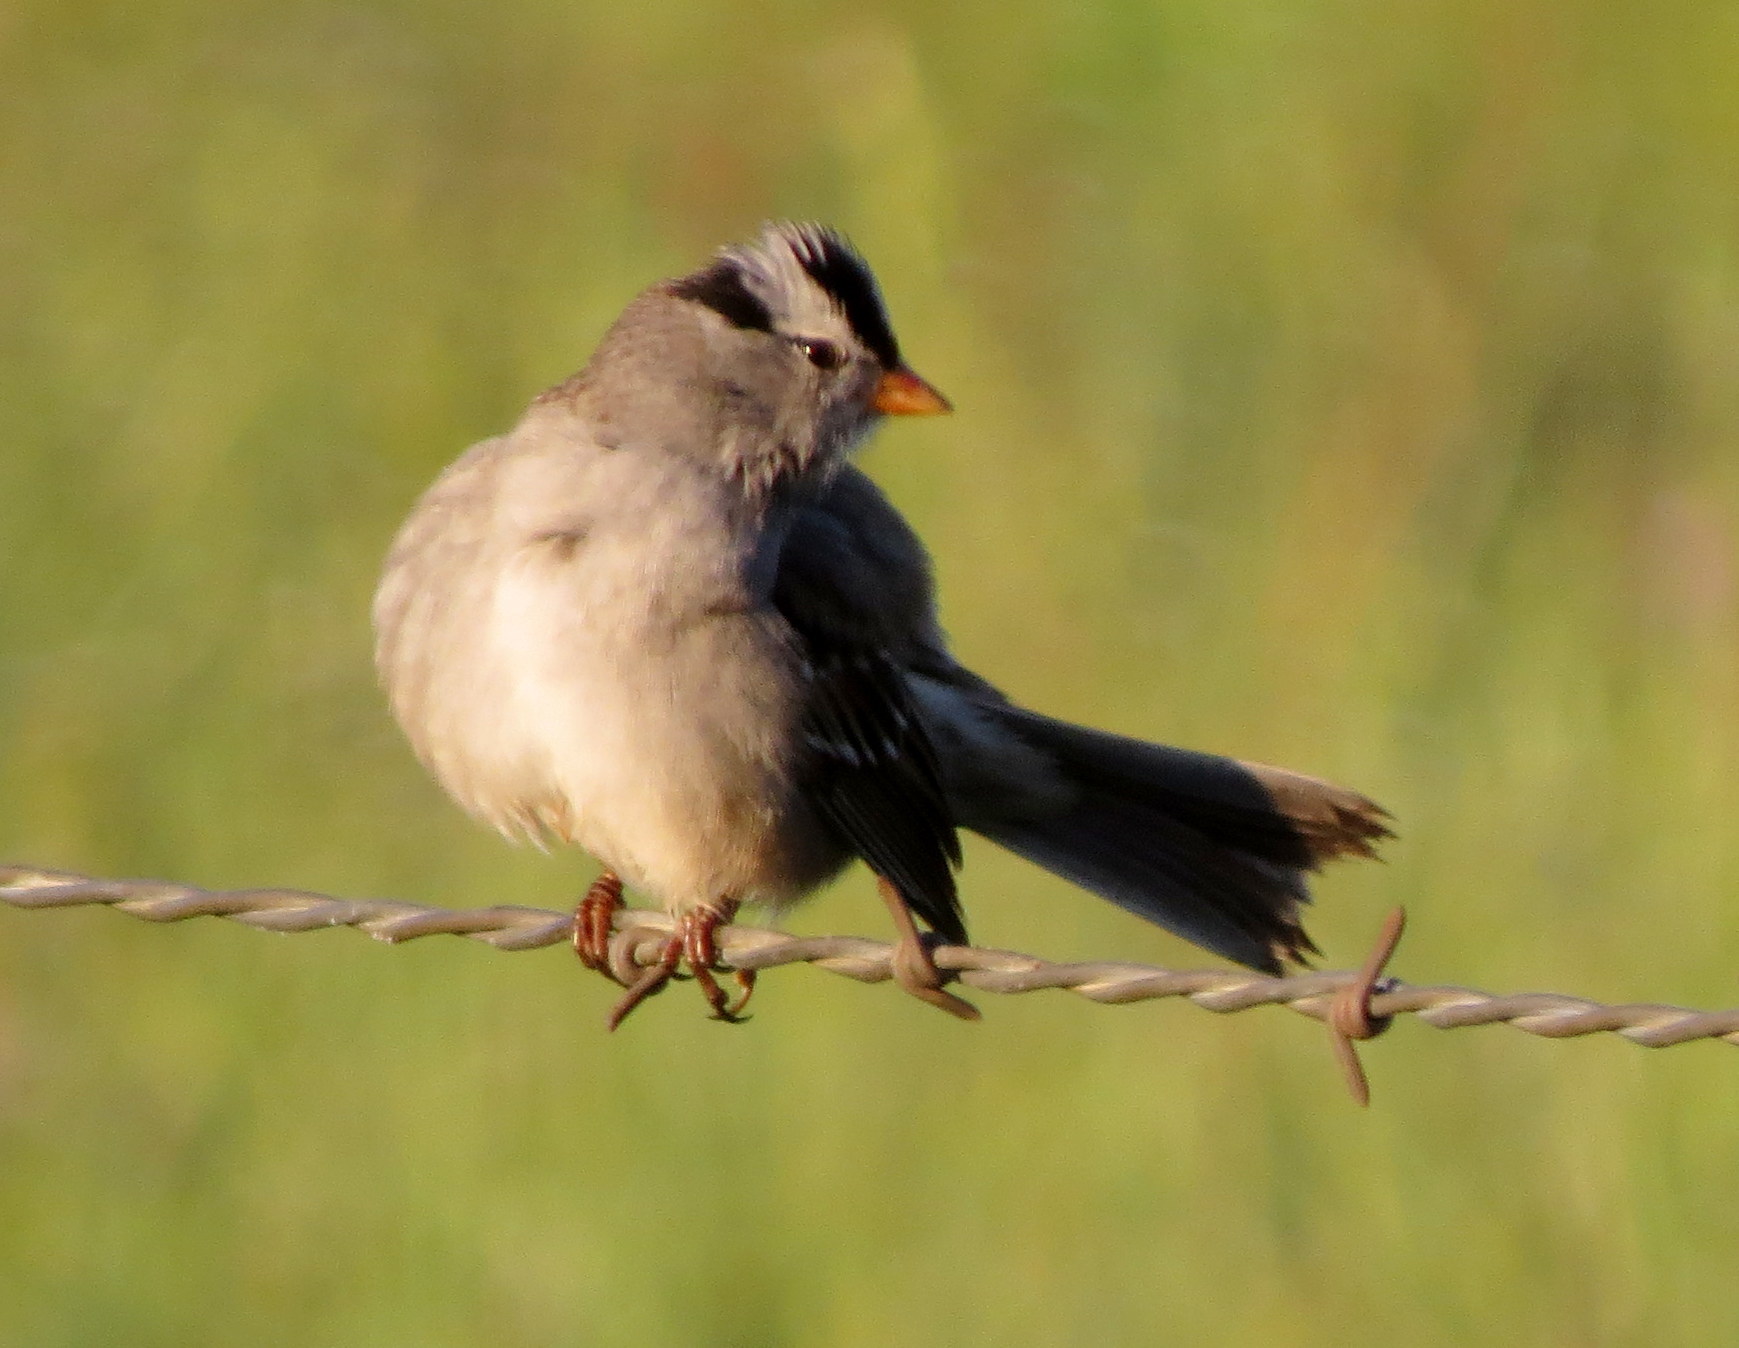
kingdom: Animalia
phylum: Chordata
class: Aves
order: Passeriformes
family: Passerellidae
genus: Zonotrichia
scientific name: Zonotrichia leucophrys
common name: White-crowned sparrow
